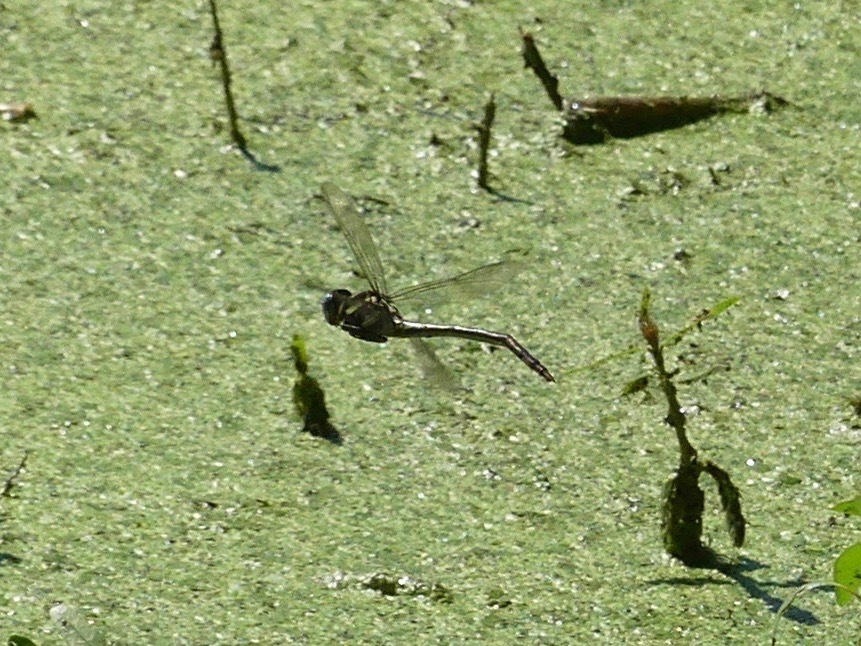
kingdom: Animalia
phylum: Arthropoda
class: Insecta
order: Odonata
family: Gomphidae
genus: Aphylla
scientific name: Aphylla williamsoni
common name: Two-striped forceptail
